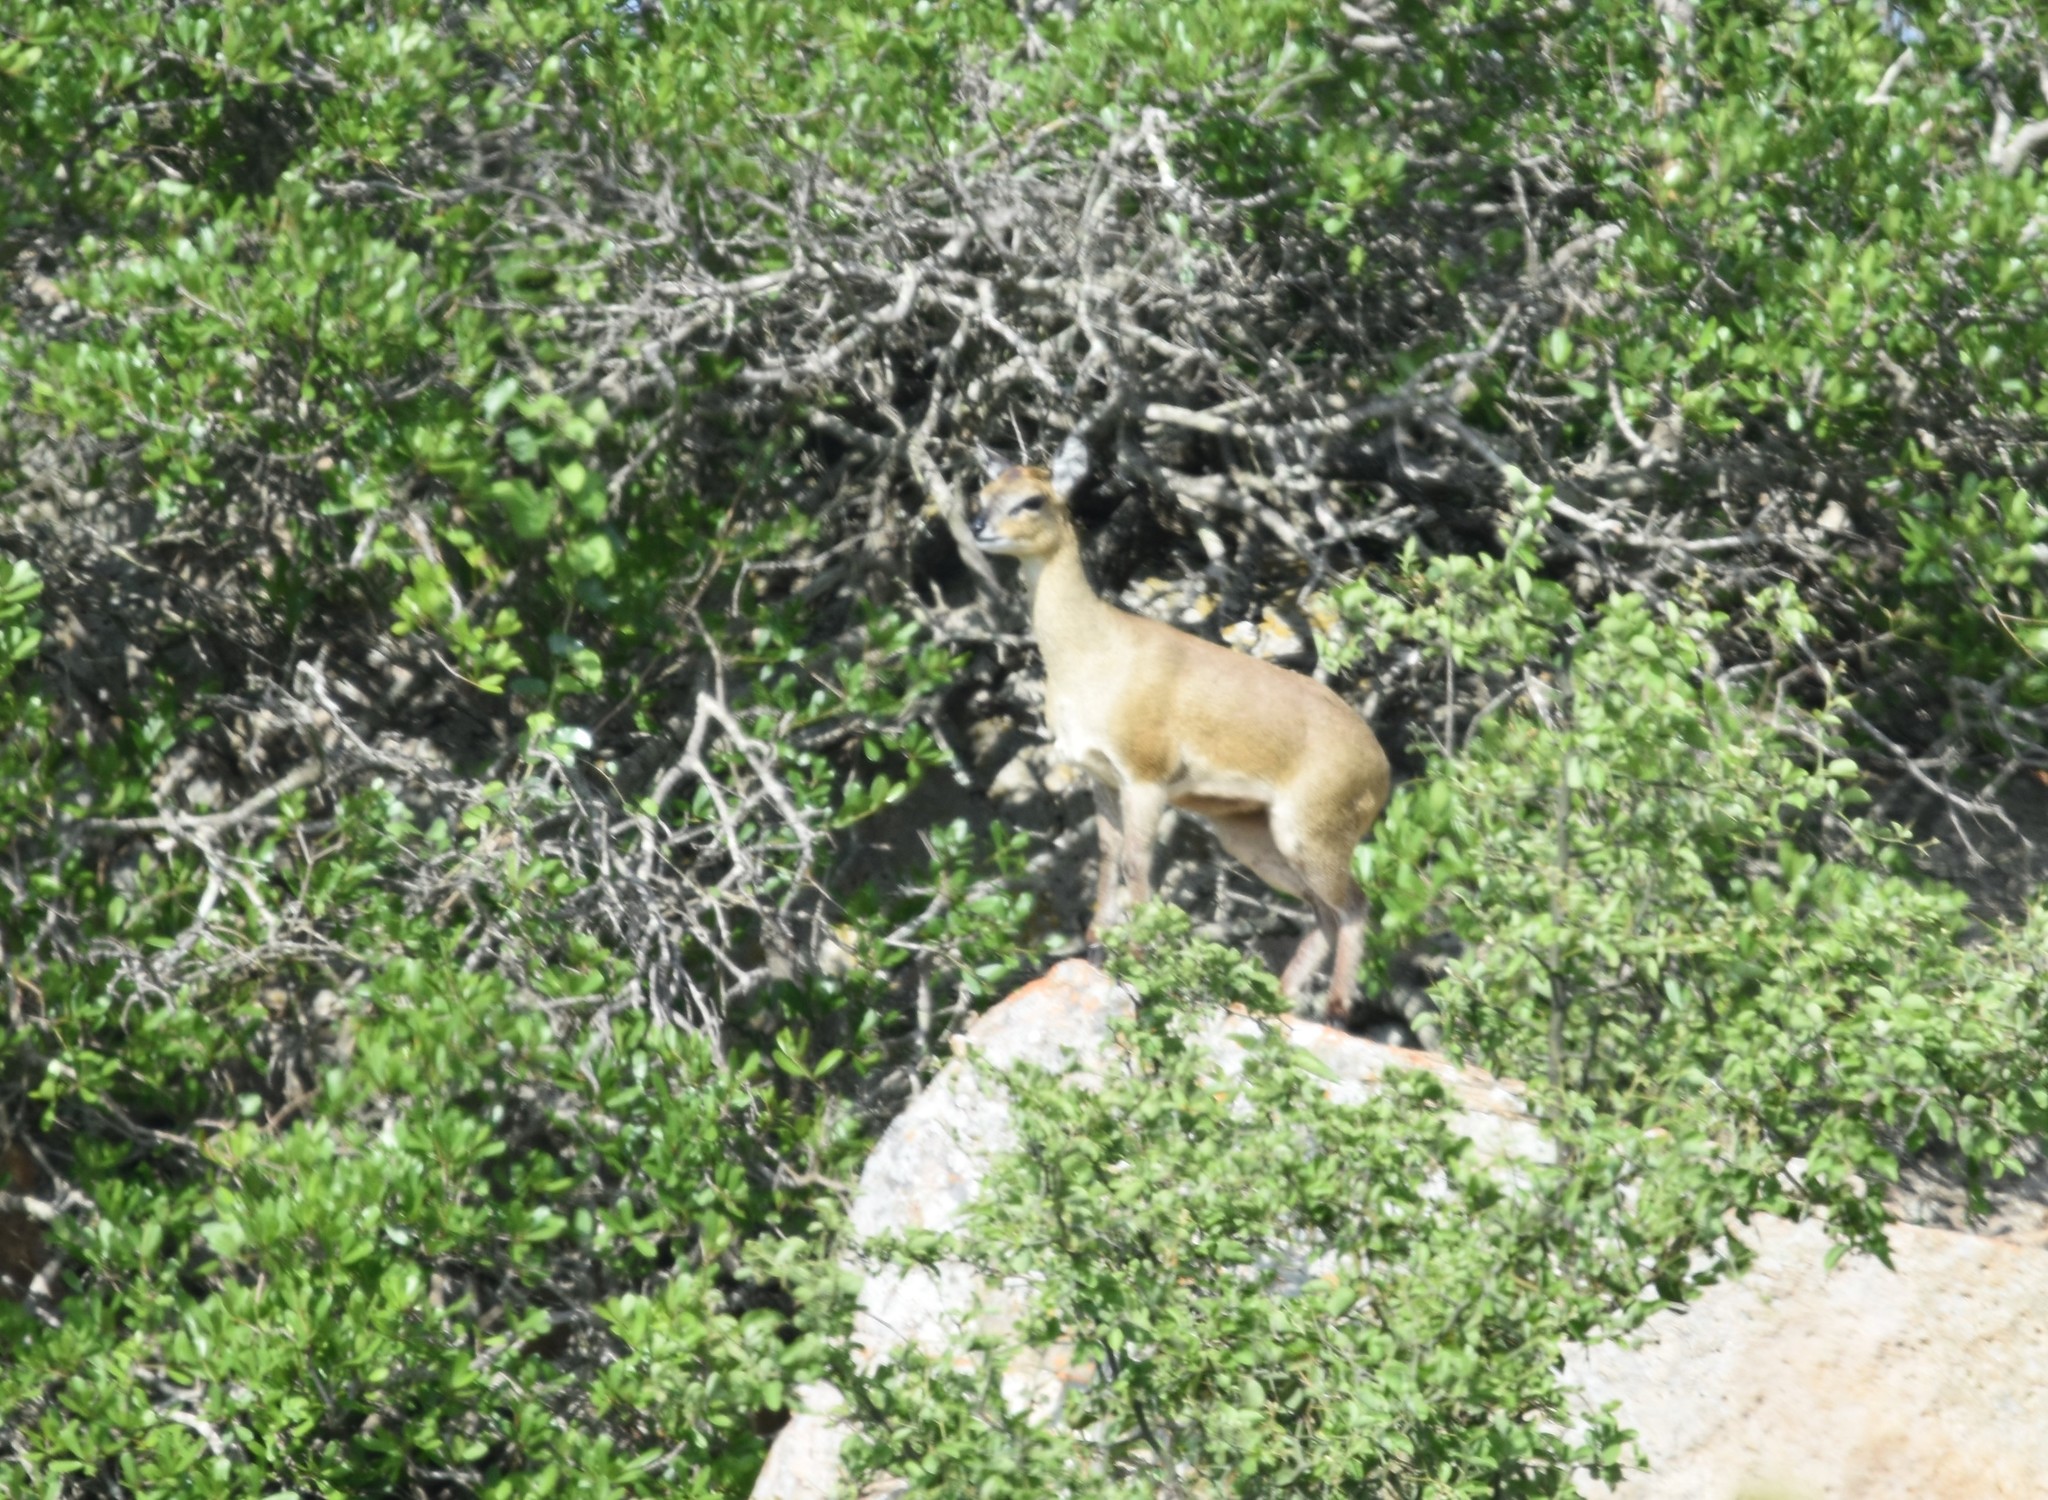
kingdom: Animalia
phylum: Chordata
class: Mammalia
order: Artiodactyla
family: Bovidae
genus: Oreotragus
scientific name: Oreotragus oreotragus
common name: Klipspringer
